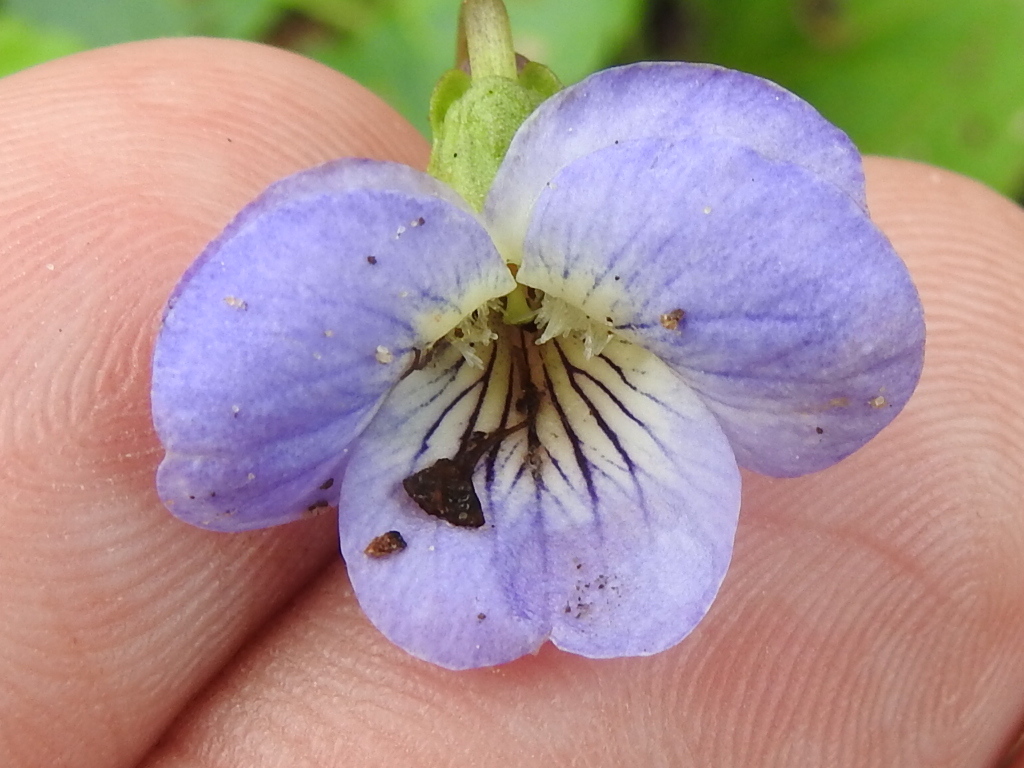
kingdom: Plantae
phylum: Tracheophyta
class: Magnoliopsida
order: Malpighiales
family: Violaceae
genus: Viola
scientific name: Viola missouriensis
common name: Missouri violet
